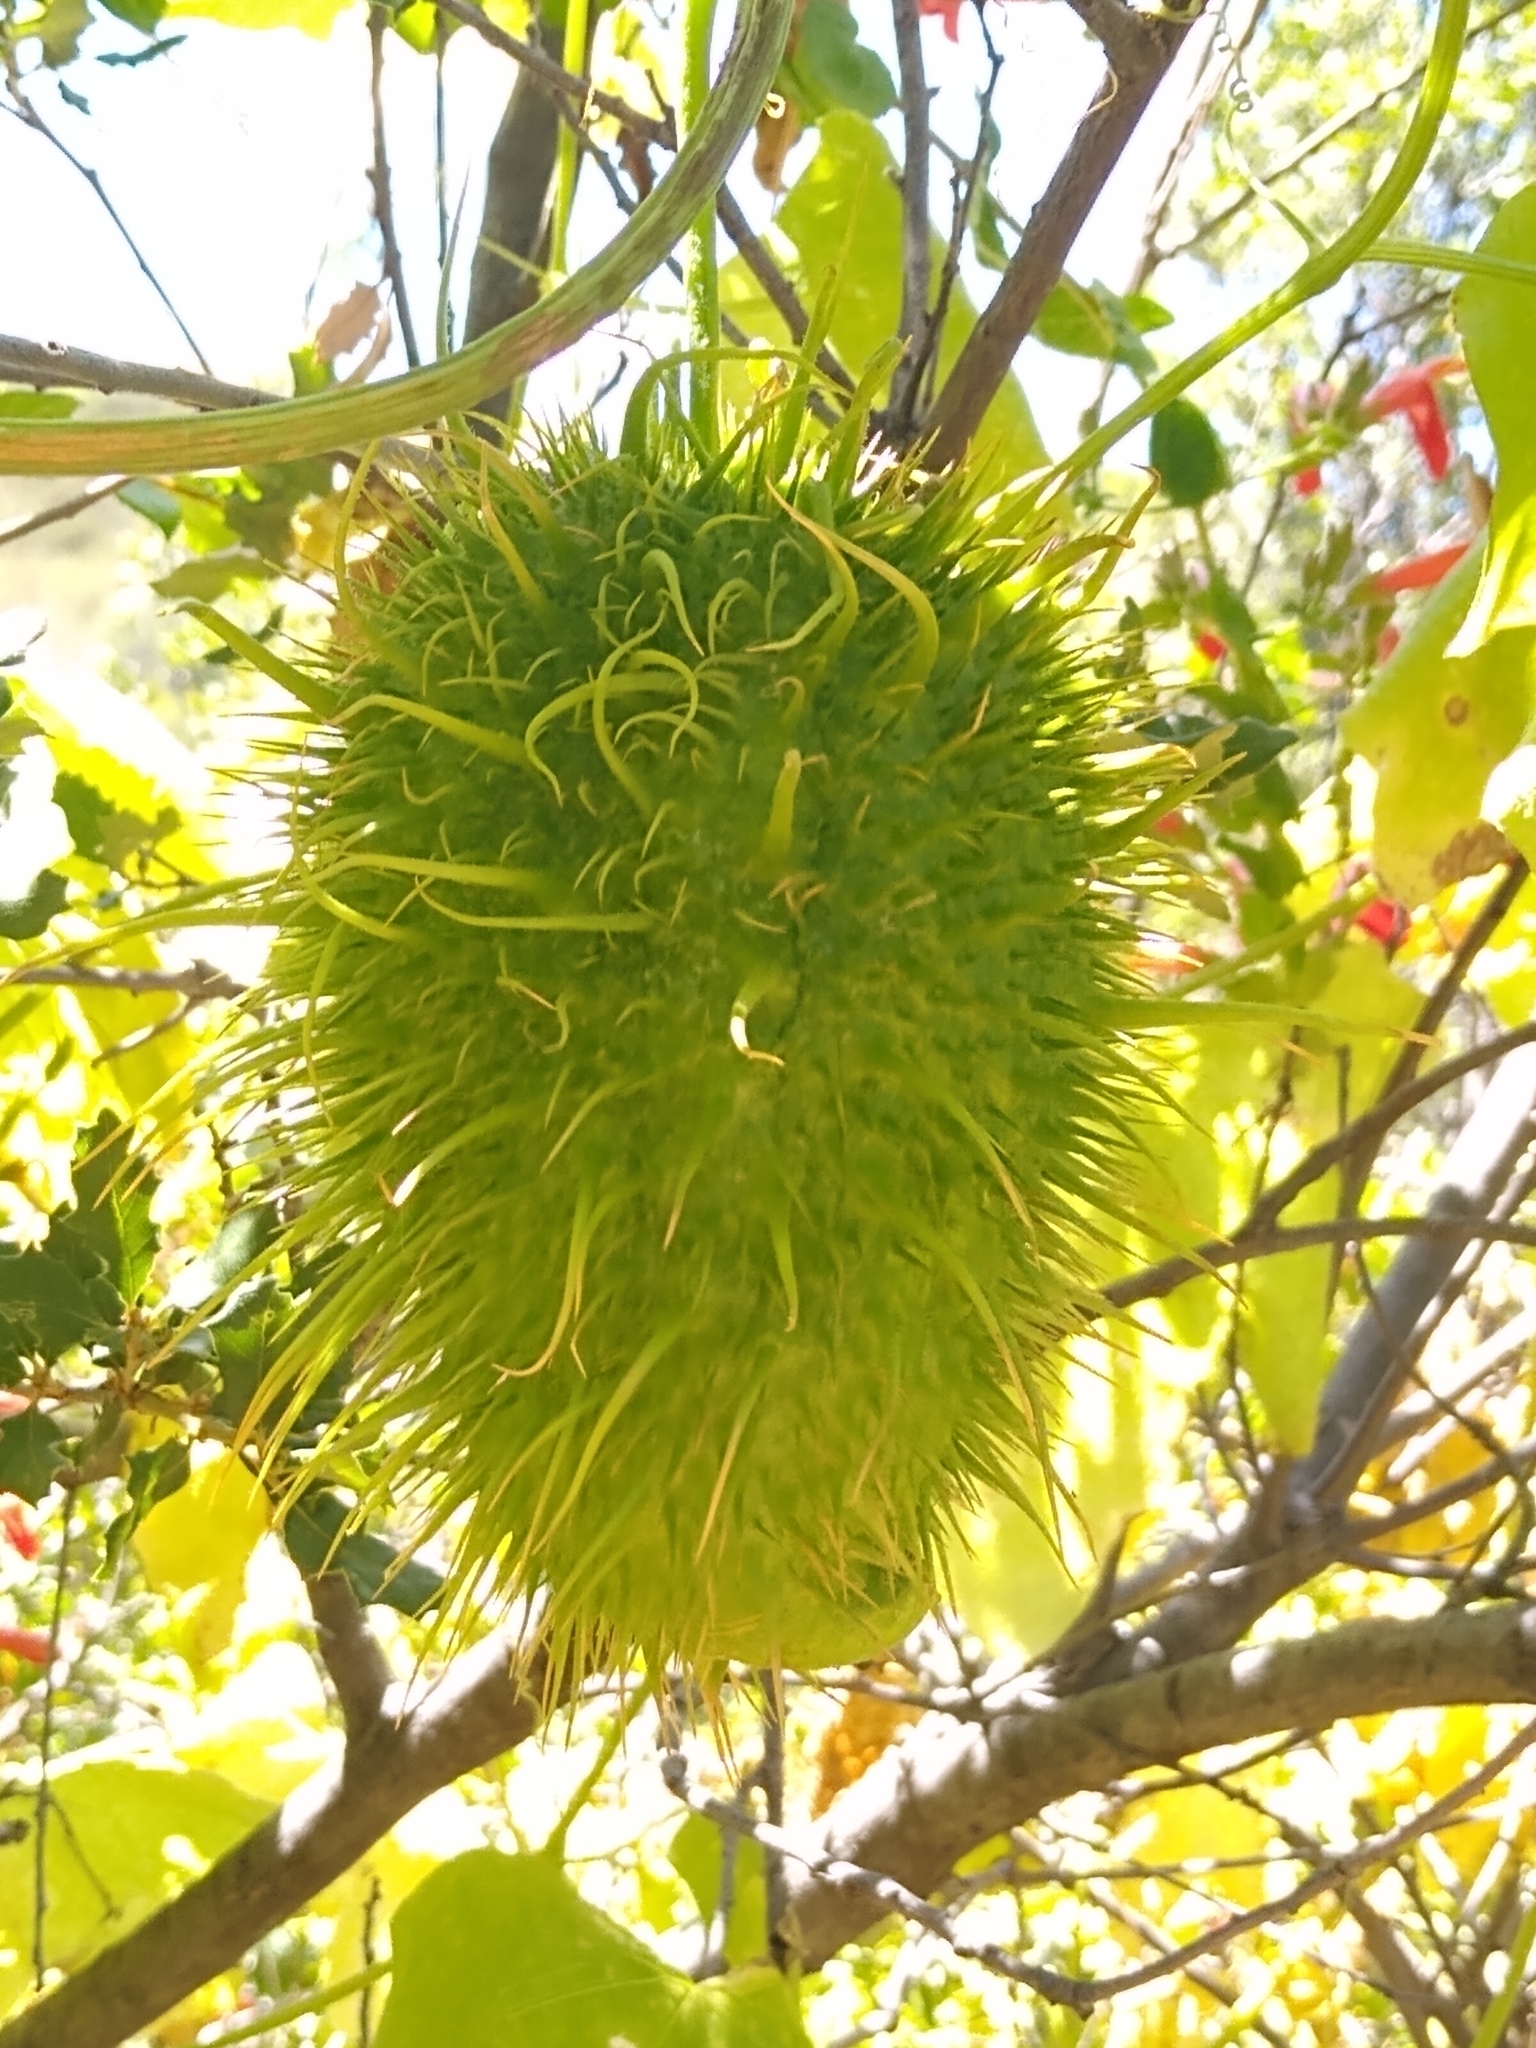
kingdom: Plantae
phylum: Tracheophyta
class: Magnoliopsida
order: Cucurbitales
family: Cucurbitaceae
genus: Marah
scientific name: Marah macrocarpa
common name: Cucamonga manroot
